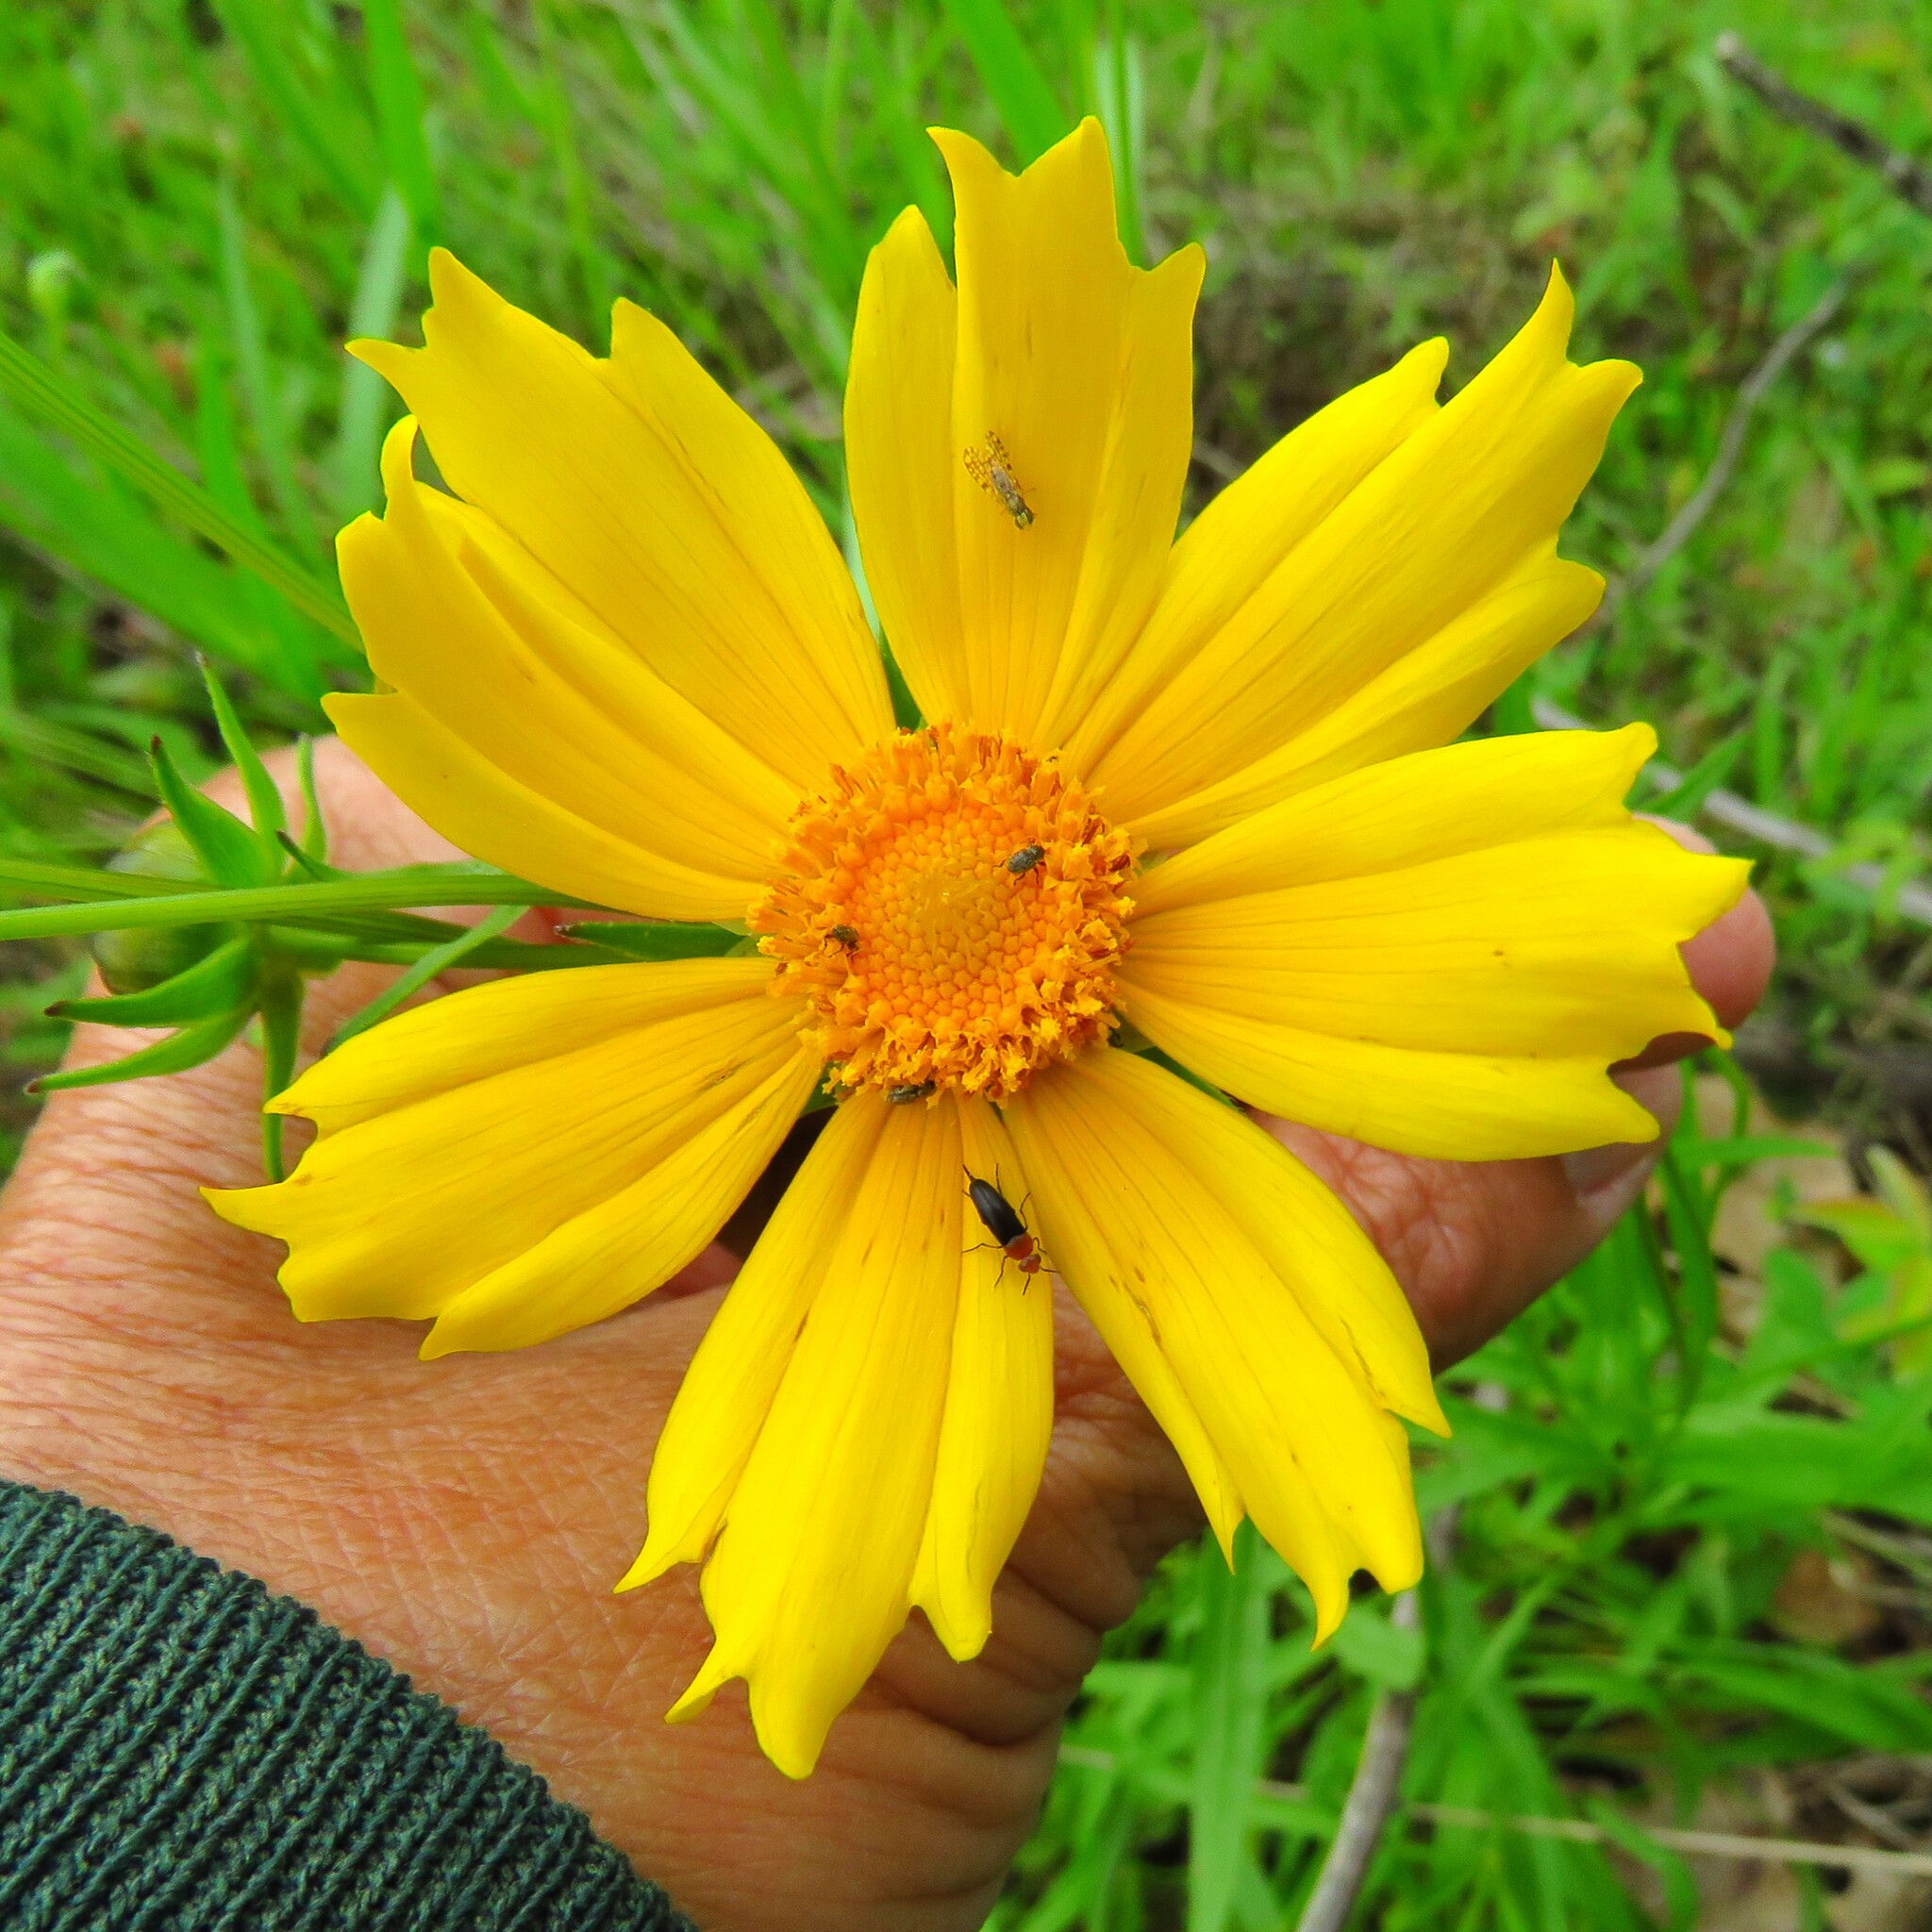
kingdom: Plantae
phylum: Tracheophyta
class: Magnoliopsida
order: Asterales
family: Asteraceae
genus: Coreopsis
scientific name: Coreopsis grandiflora
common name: Large-flowered tickseed
